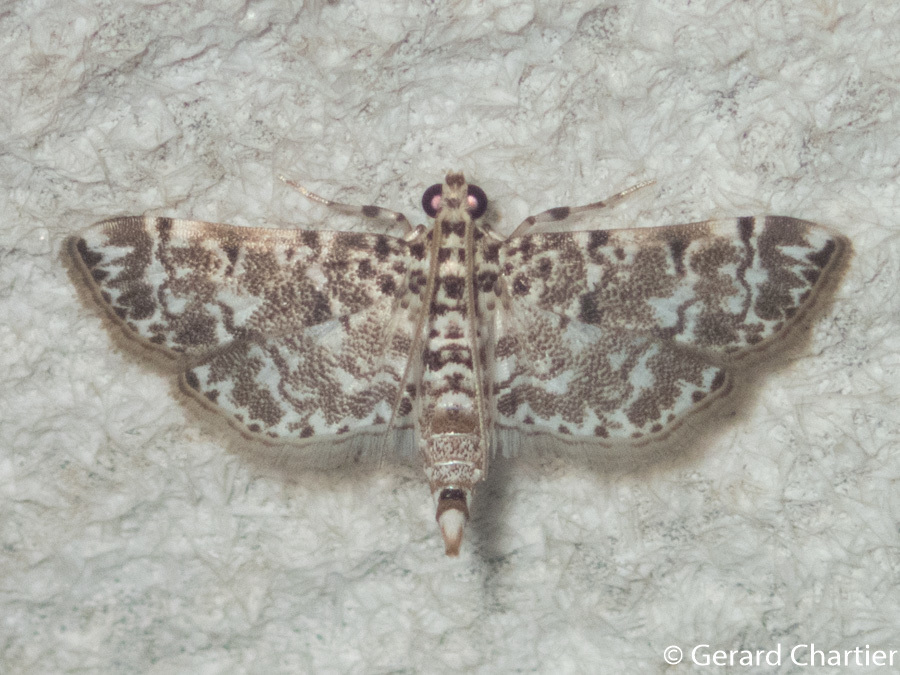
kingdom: Animalia
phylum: Arthropoda
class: Insecta
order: Lepidoptera
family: Crambidae
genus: Metoeca
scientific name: Metoeca foedalis
